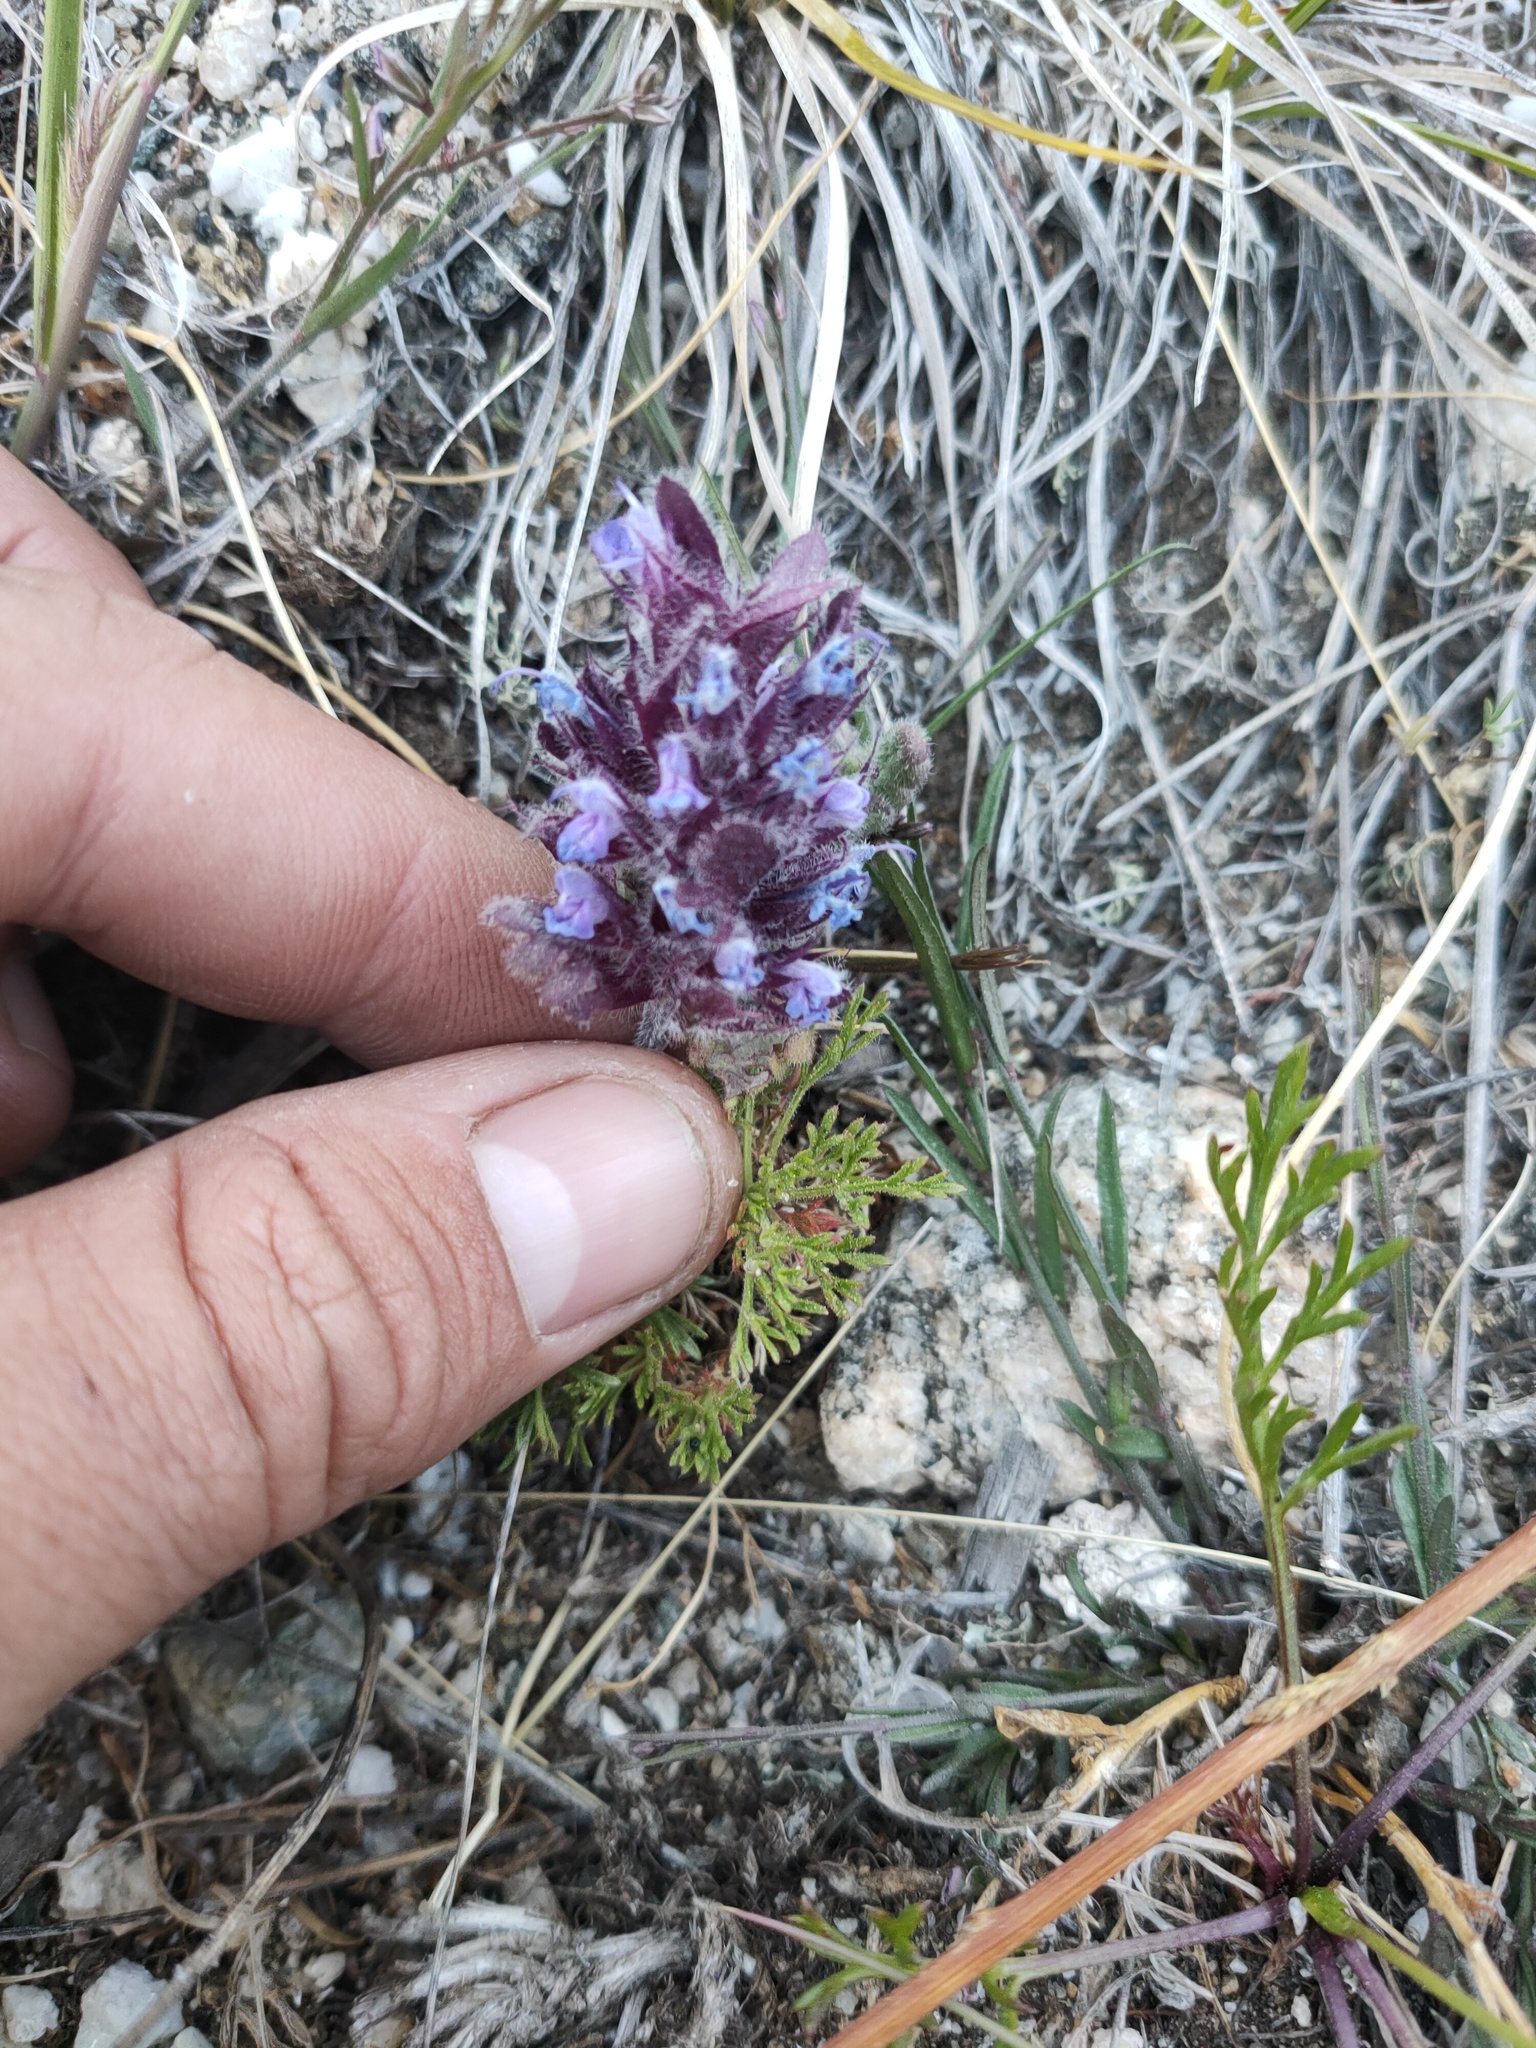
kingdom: Plantae
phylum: Tracheophyta
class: Magnoliopsida
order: Lamiales
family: Lamiaceae
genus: Dracocephalum
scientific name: Dracocephalum pinnatum
